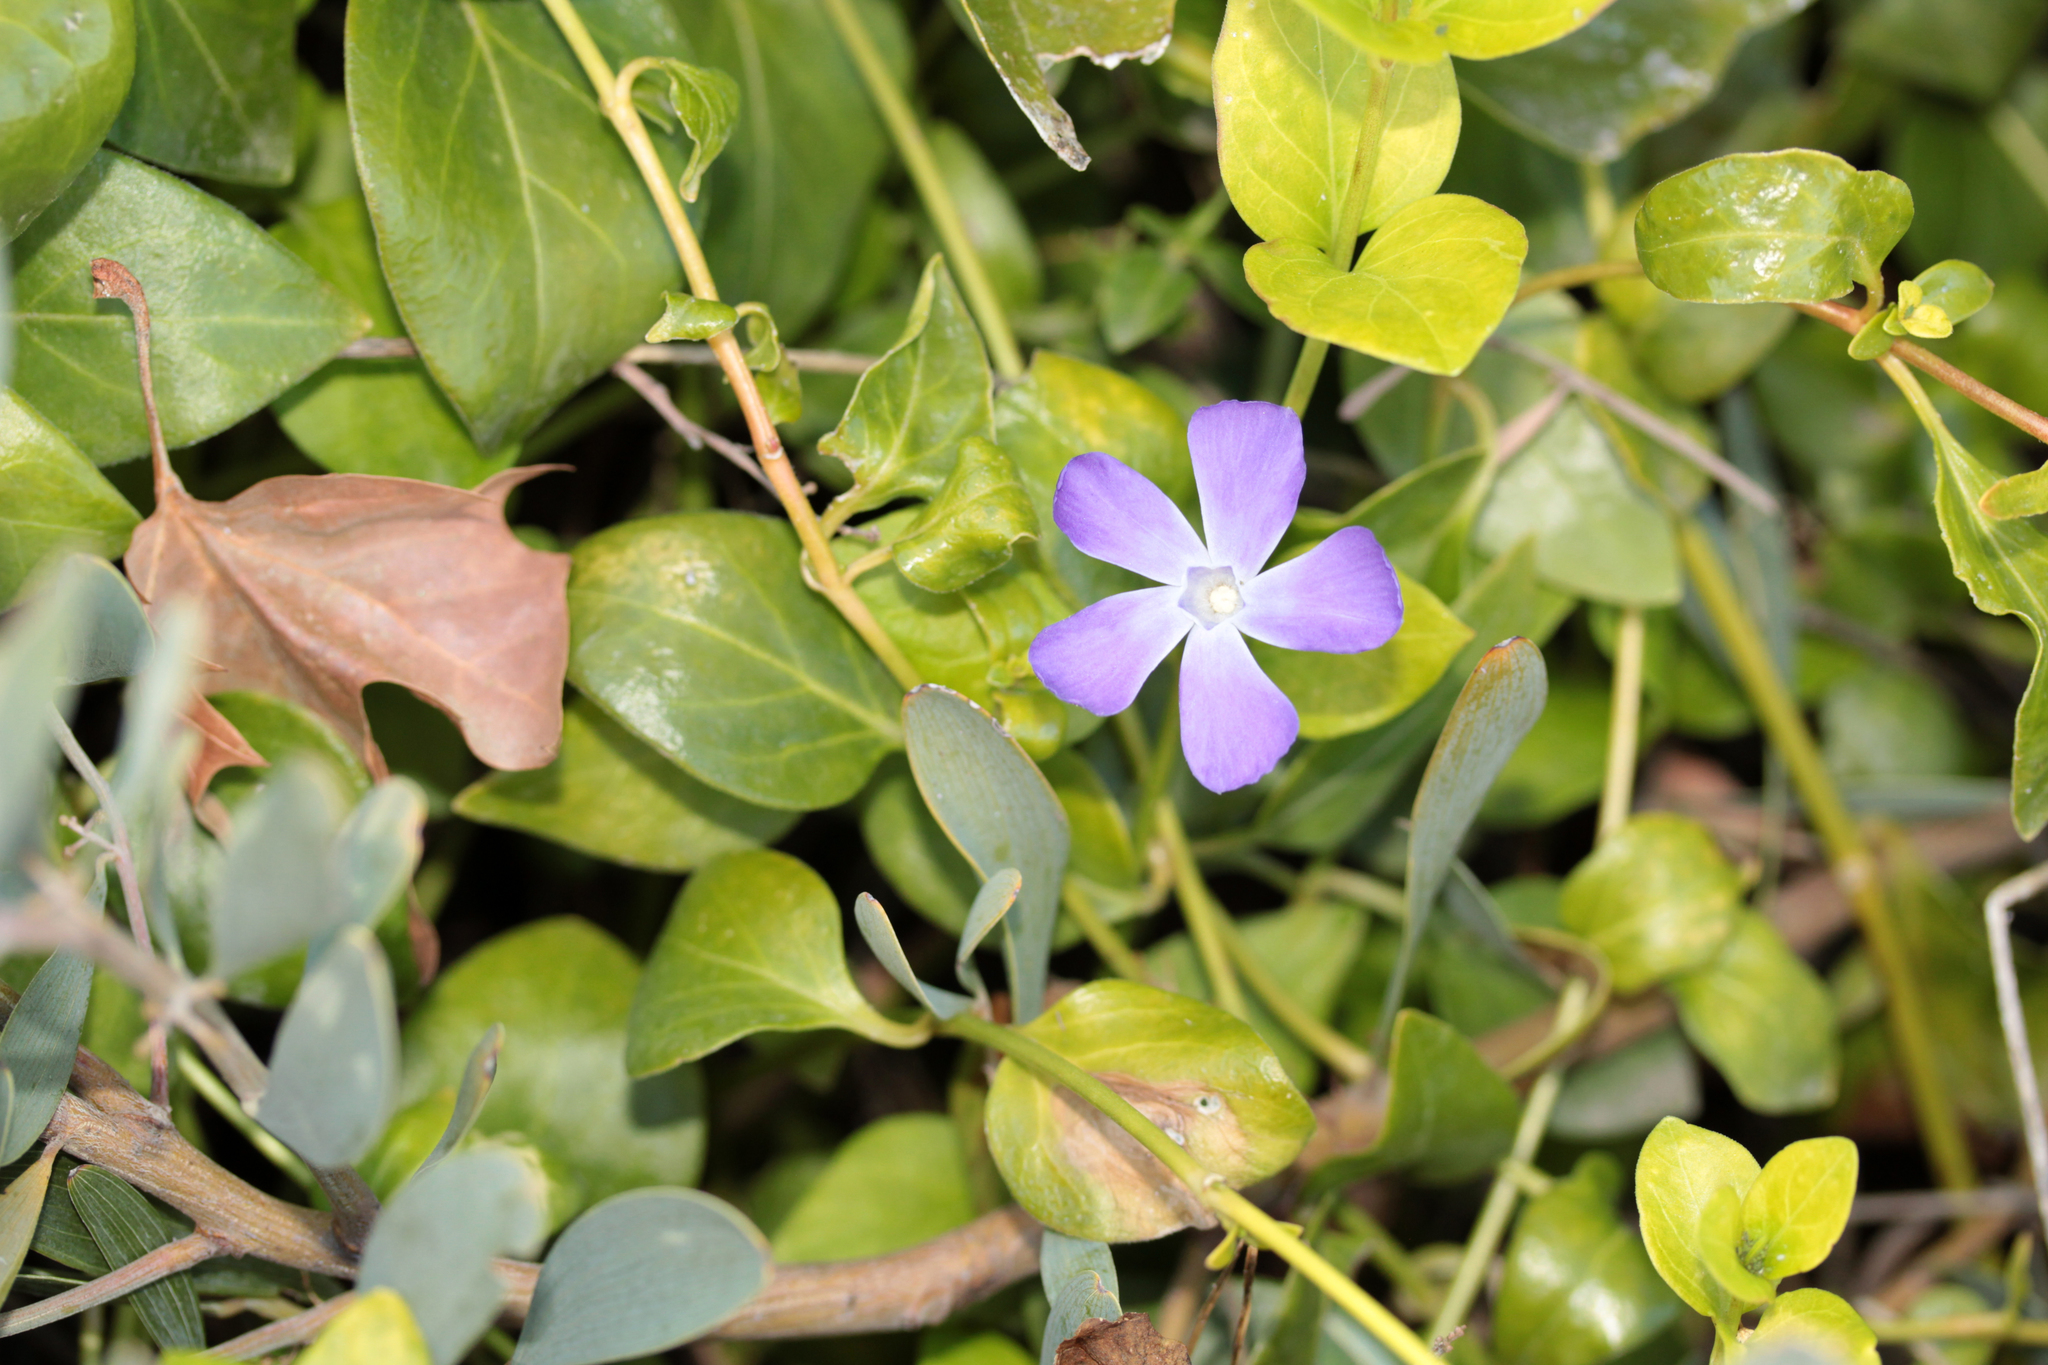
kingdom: Plantae
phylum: Tracheophyta
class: Magnoliopsida
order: Gentianales
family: Apocynaceae
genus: Vinca
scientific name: Vinca major
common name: Greater periwinkle
